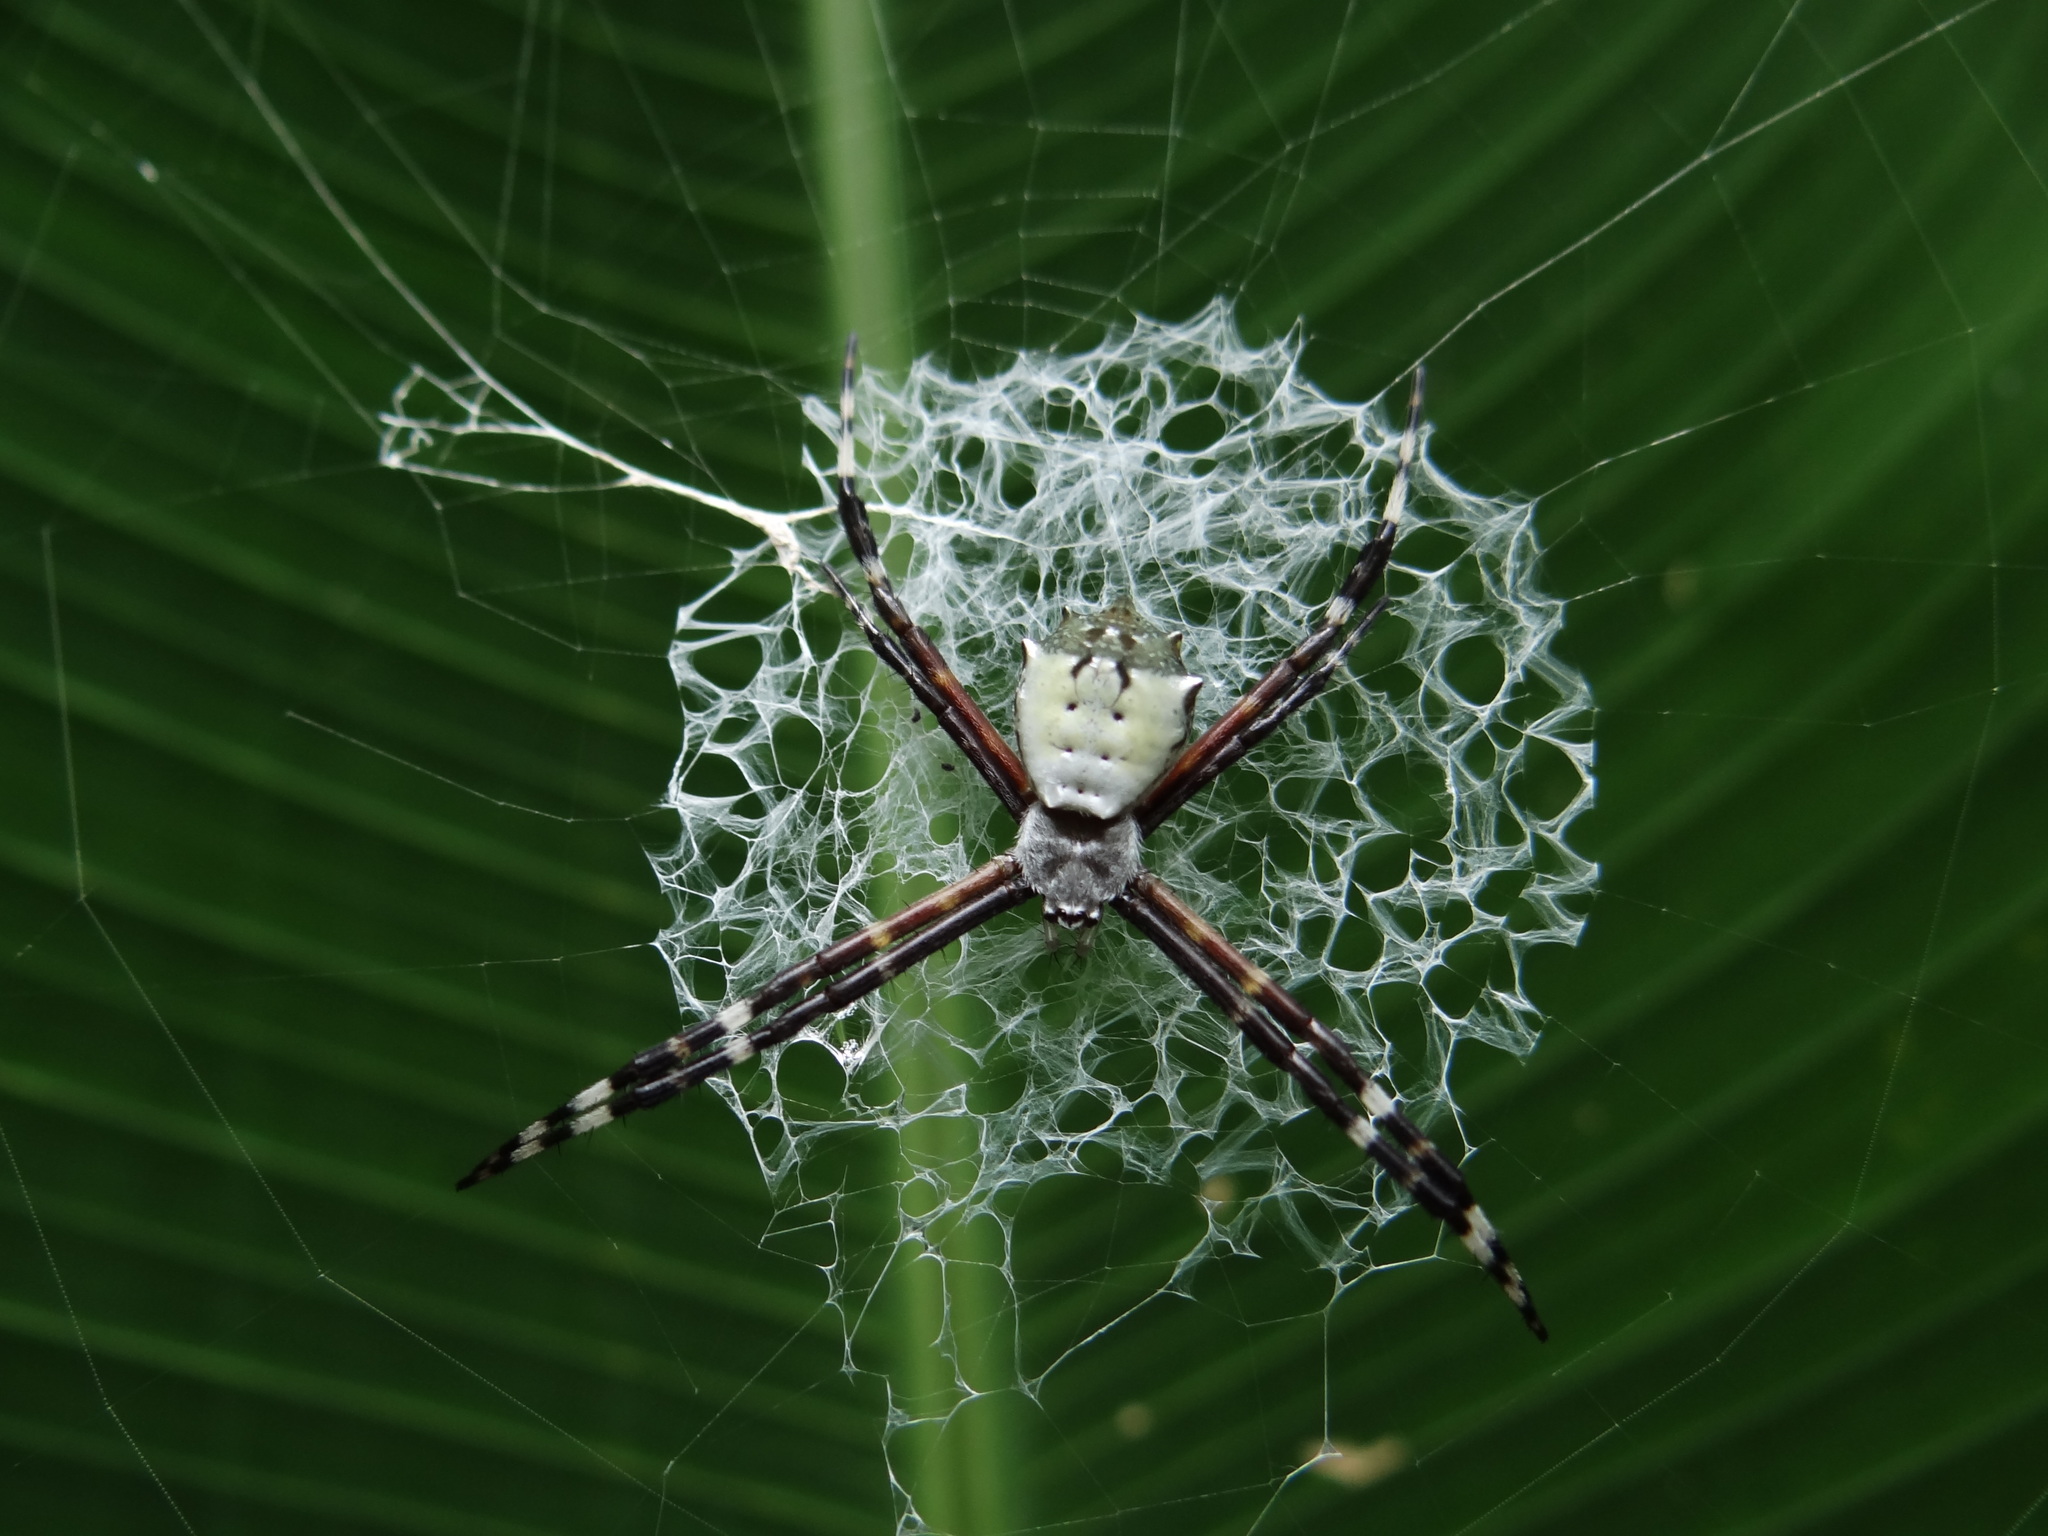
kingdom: Animalia
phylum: Arthropoda
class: Arachnida
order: Araneae
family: Araneidae
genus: Argiope
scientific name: Argiope submaronica
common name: Orb weavers
